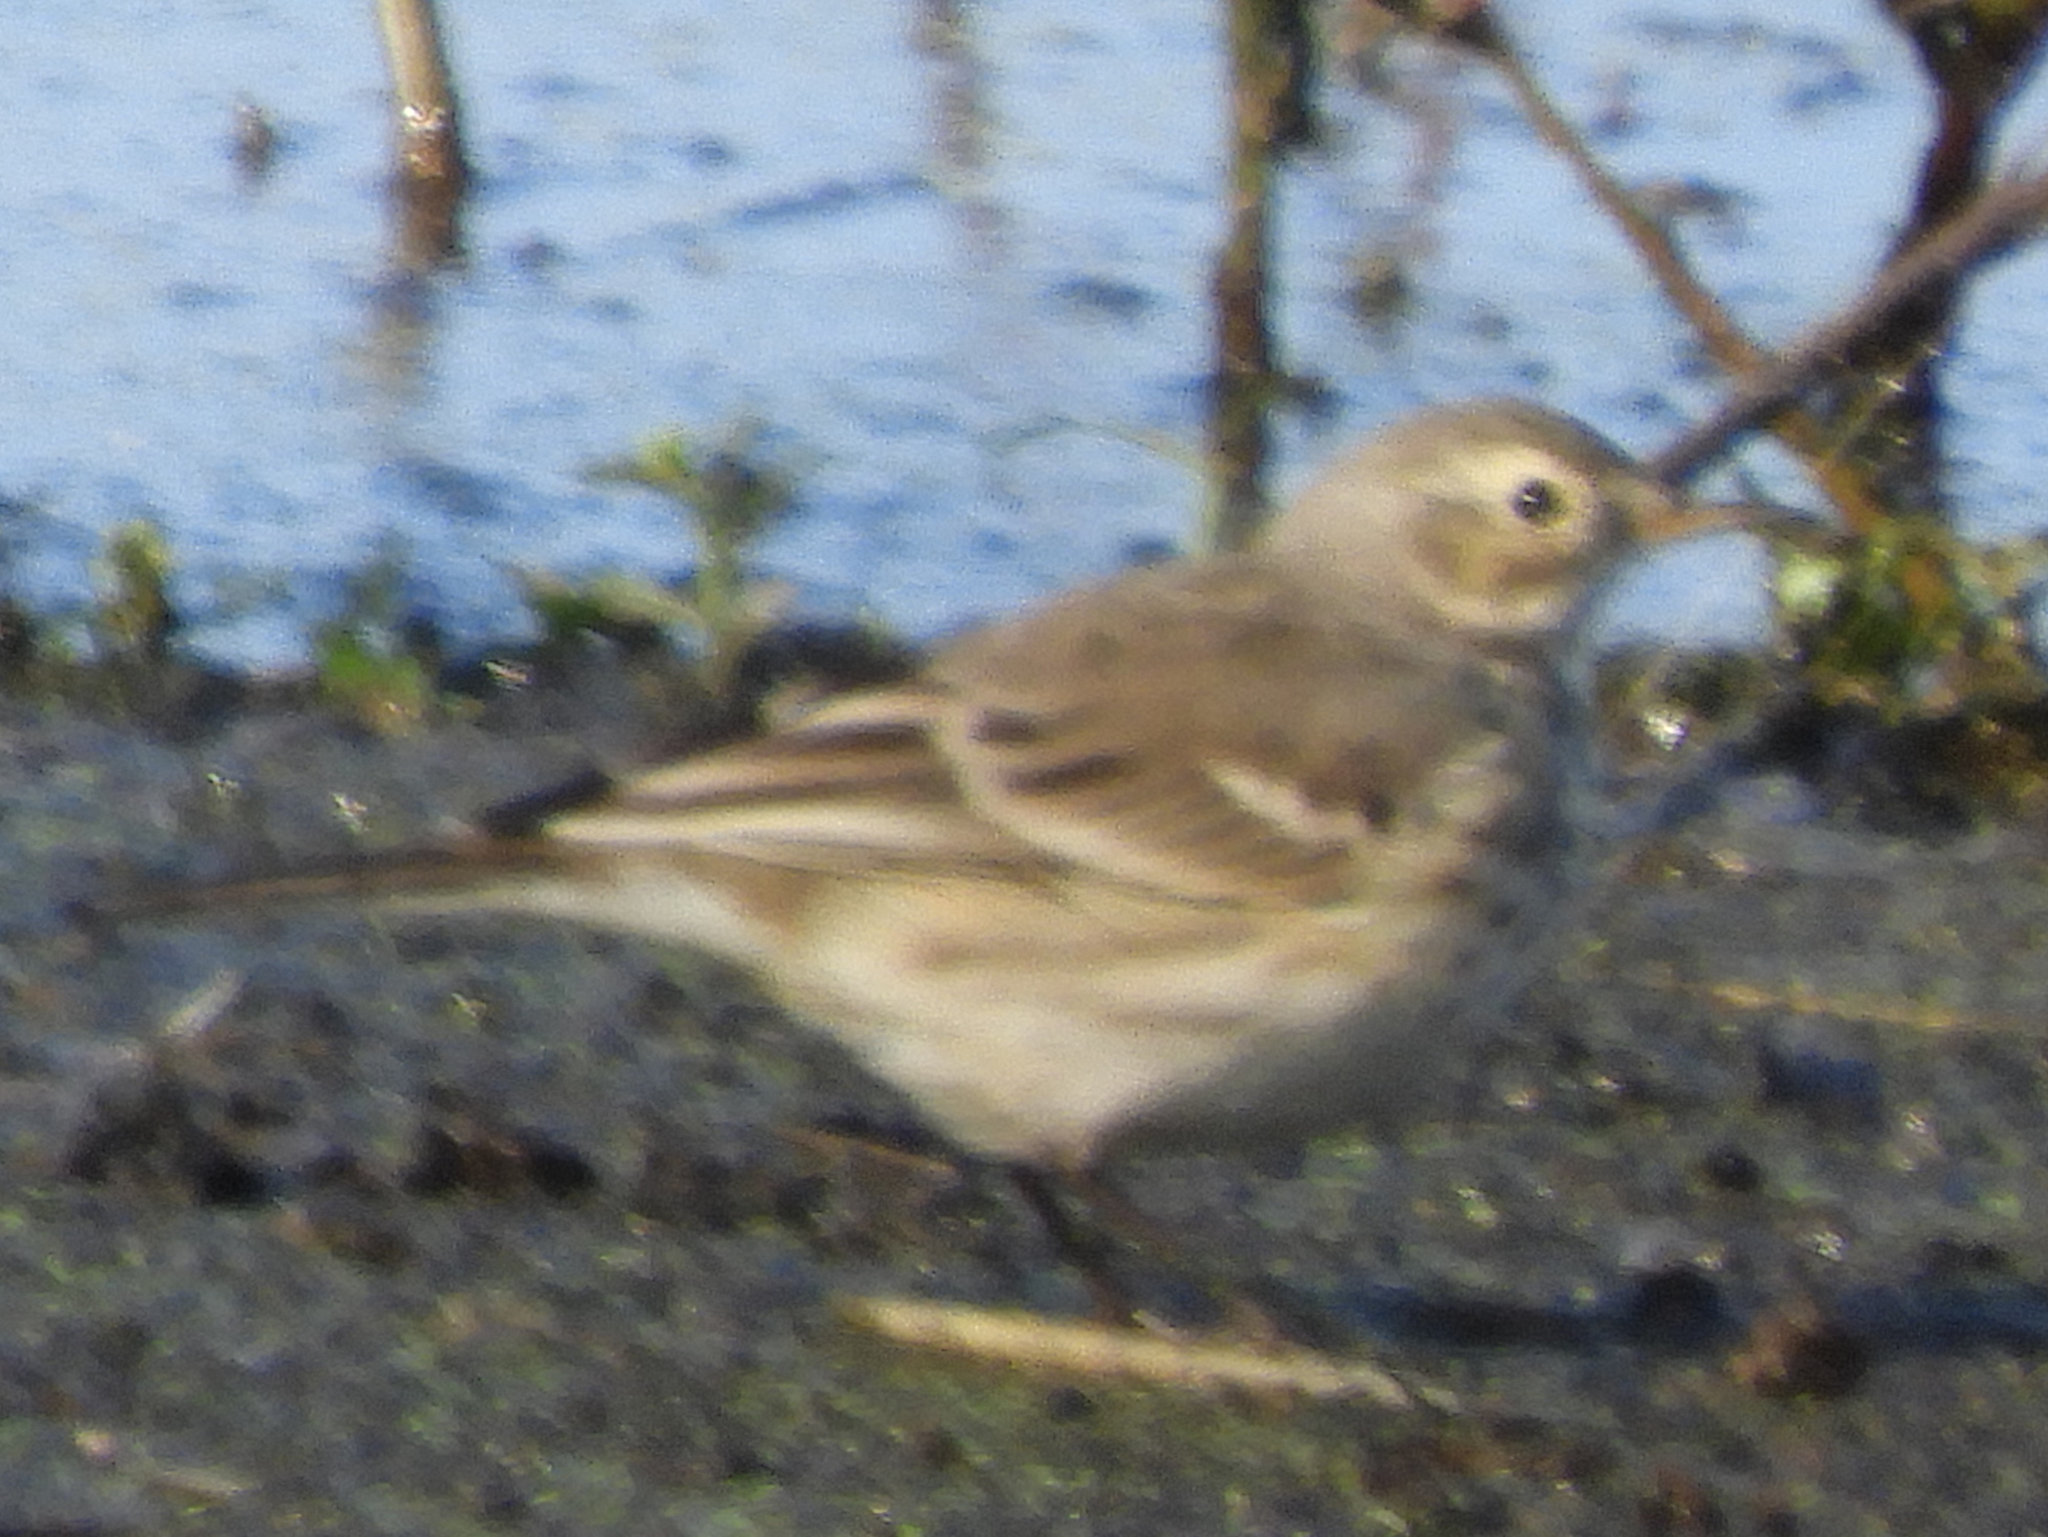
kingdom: Animalia
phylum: Chordata
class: Aves
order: Passeriformes
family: Motacillidae
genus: Anthus
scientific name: Anthus rubescens
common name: Buff-bellied pipit
